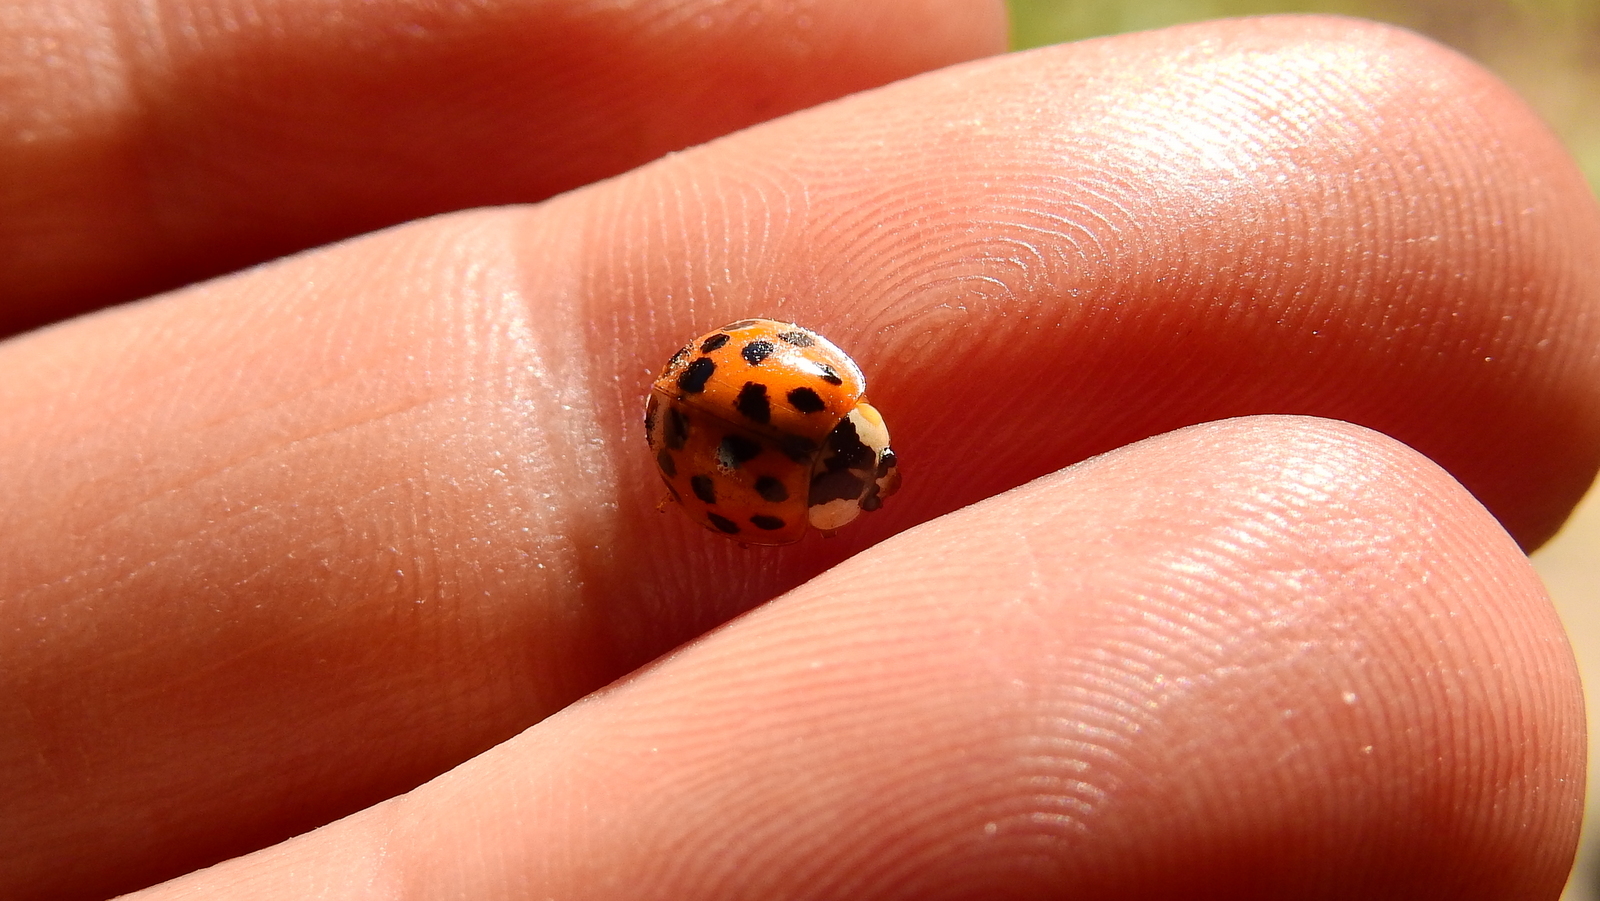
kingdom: Animalia
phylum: Arthropoda
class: Insecta
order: Coleoptera
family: Coccinellidae
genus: Harmonia
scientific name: Harmonia axyridis
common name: Harlequin ladybird
